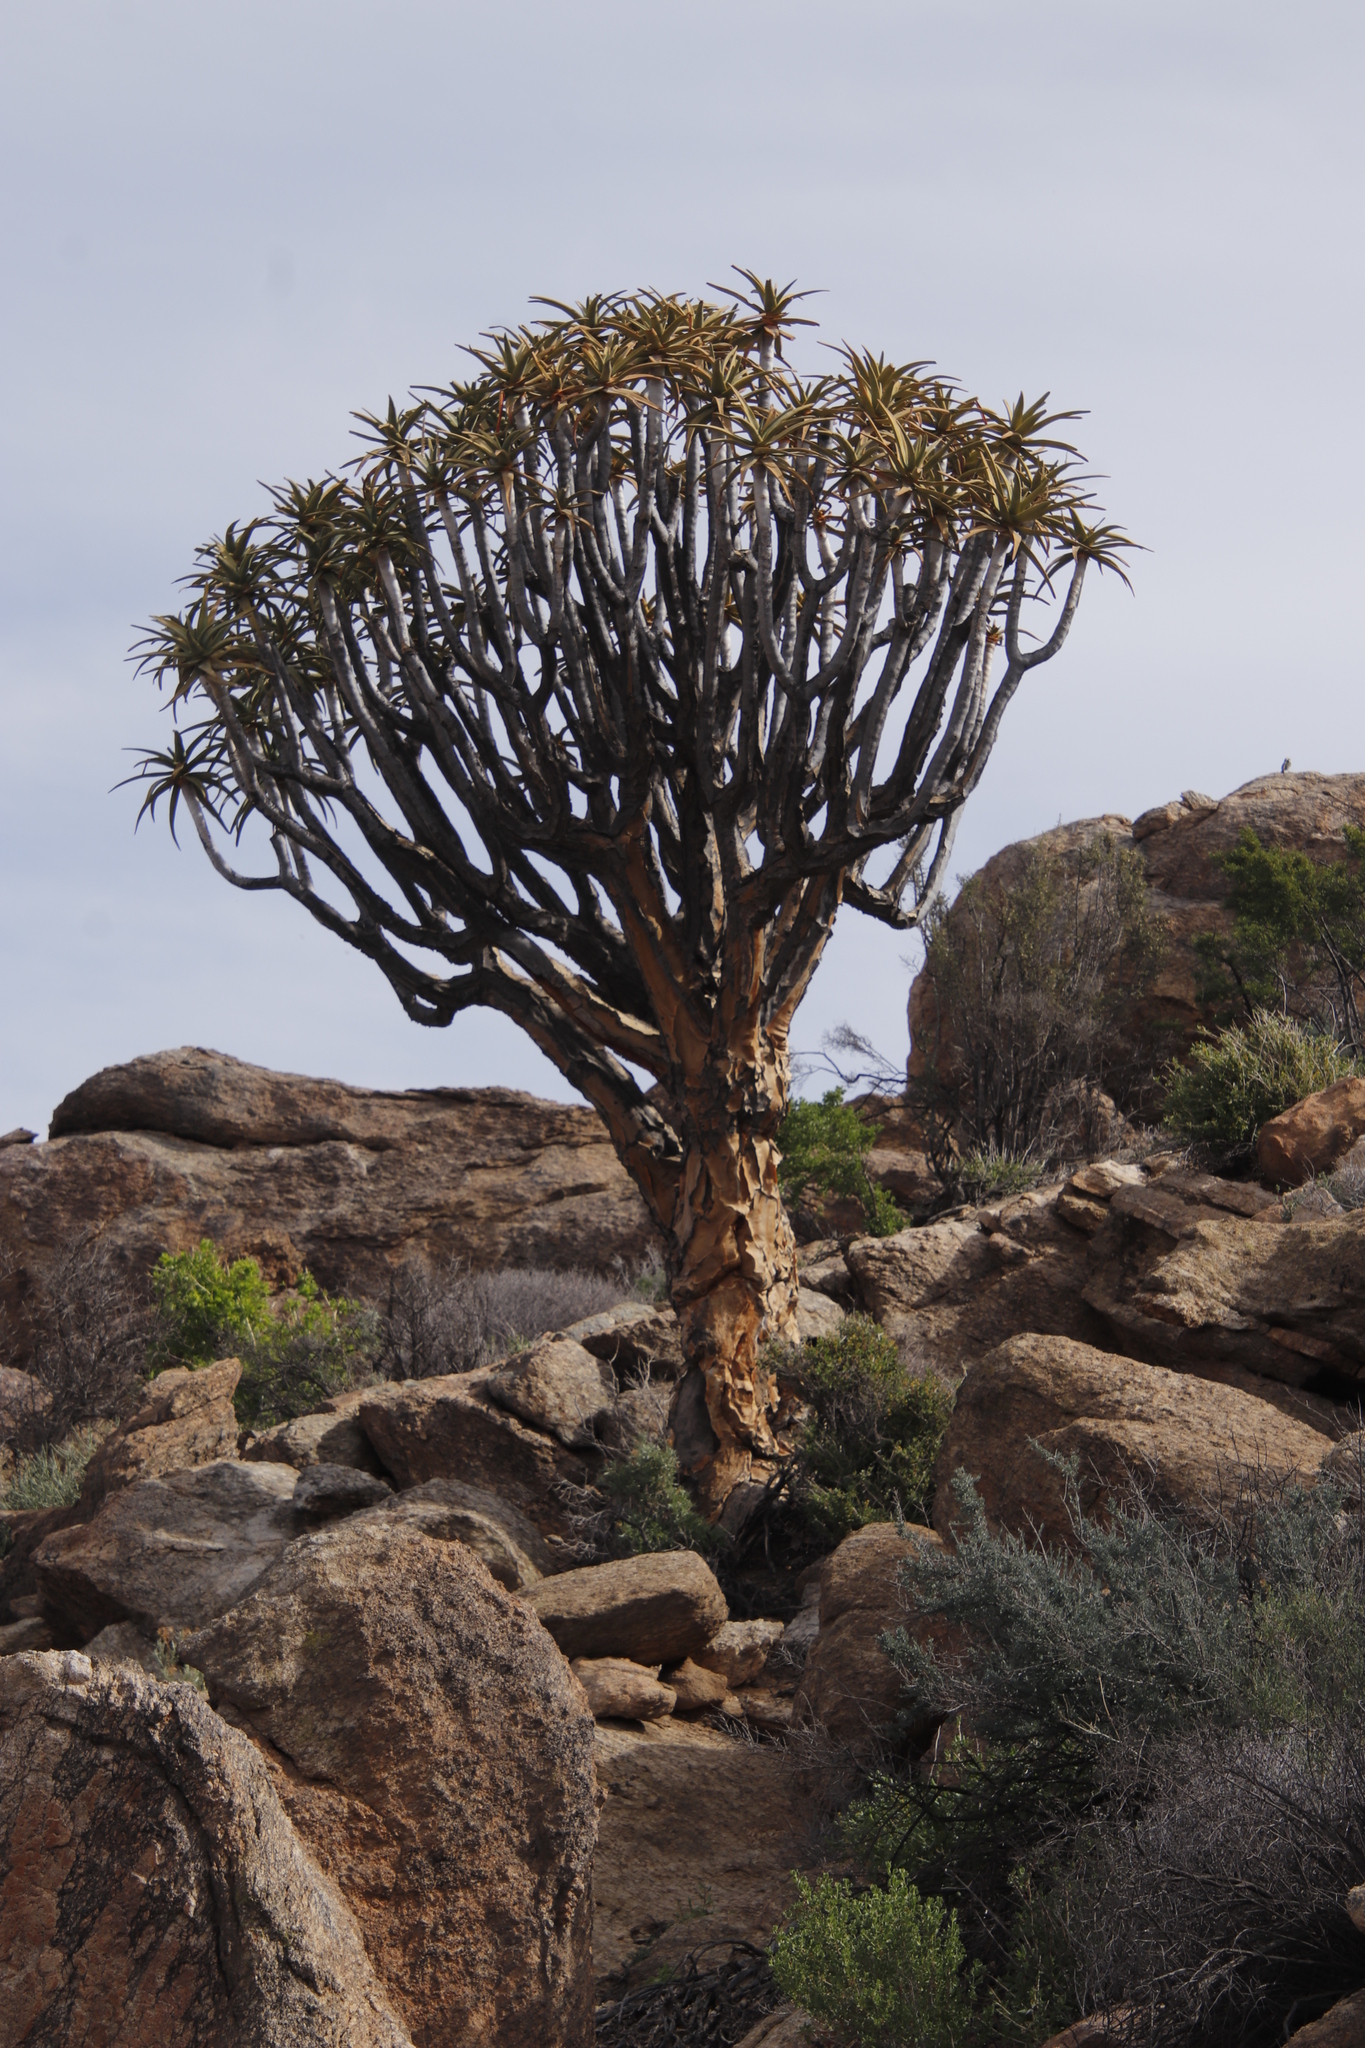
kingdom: Plantae
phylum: Tracheophyta
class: Liliopsida
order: Asparagales
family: Asphodelaceae
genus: Aloidendron
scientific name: Aloidendron dichotomum
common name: Quiver tree
